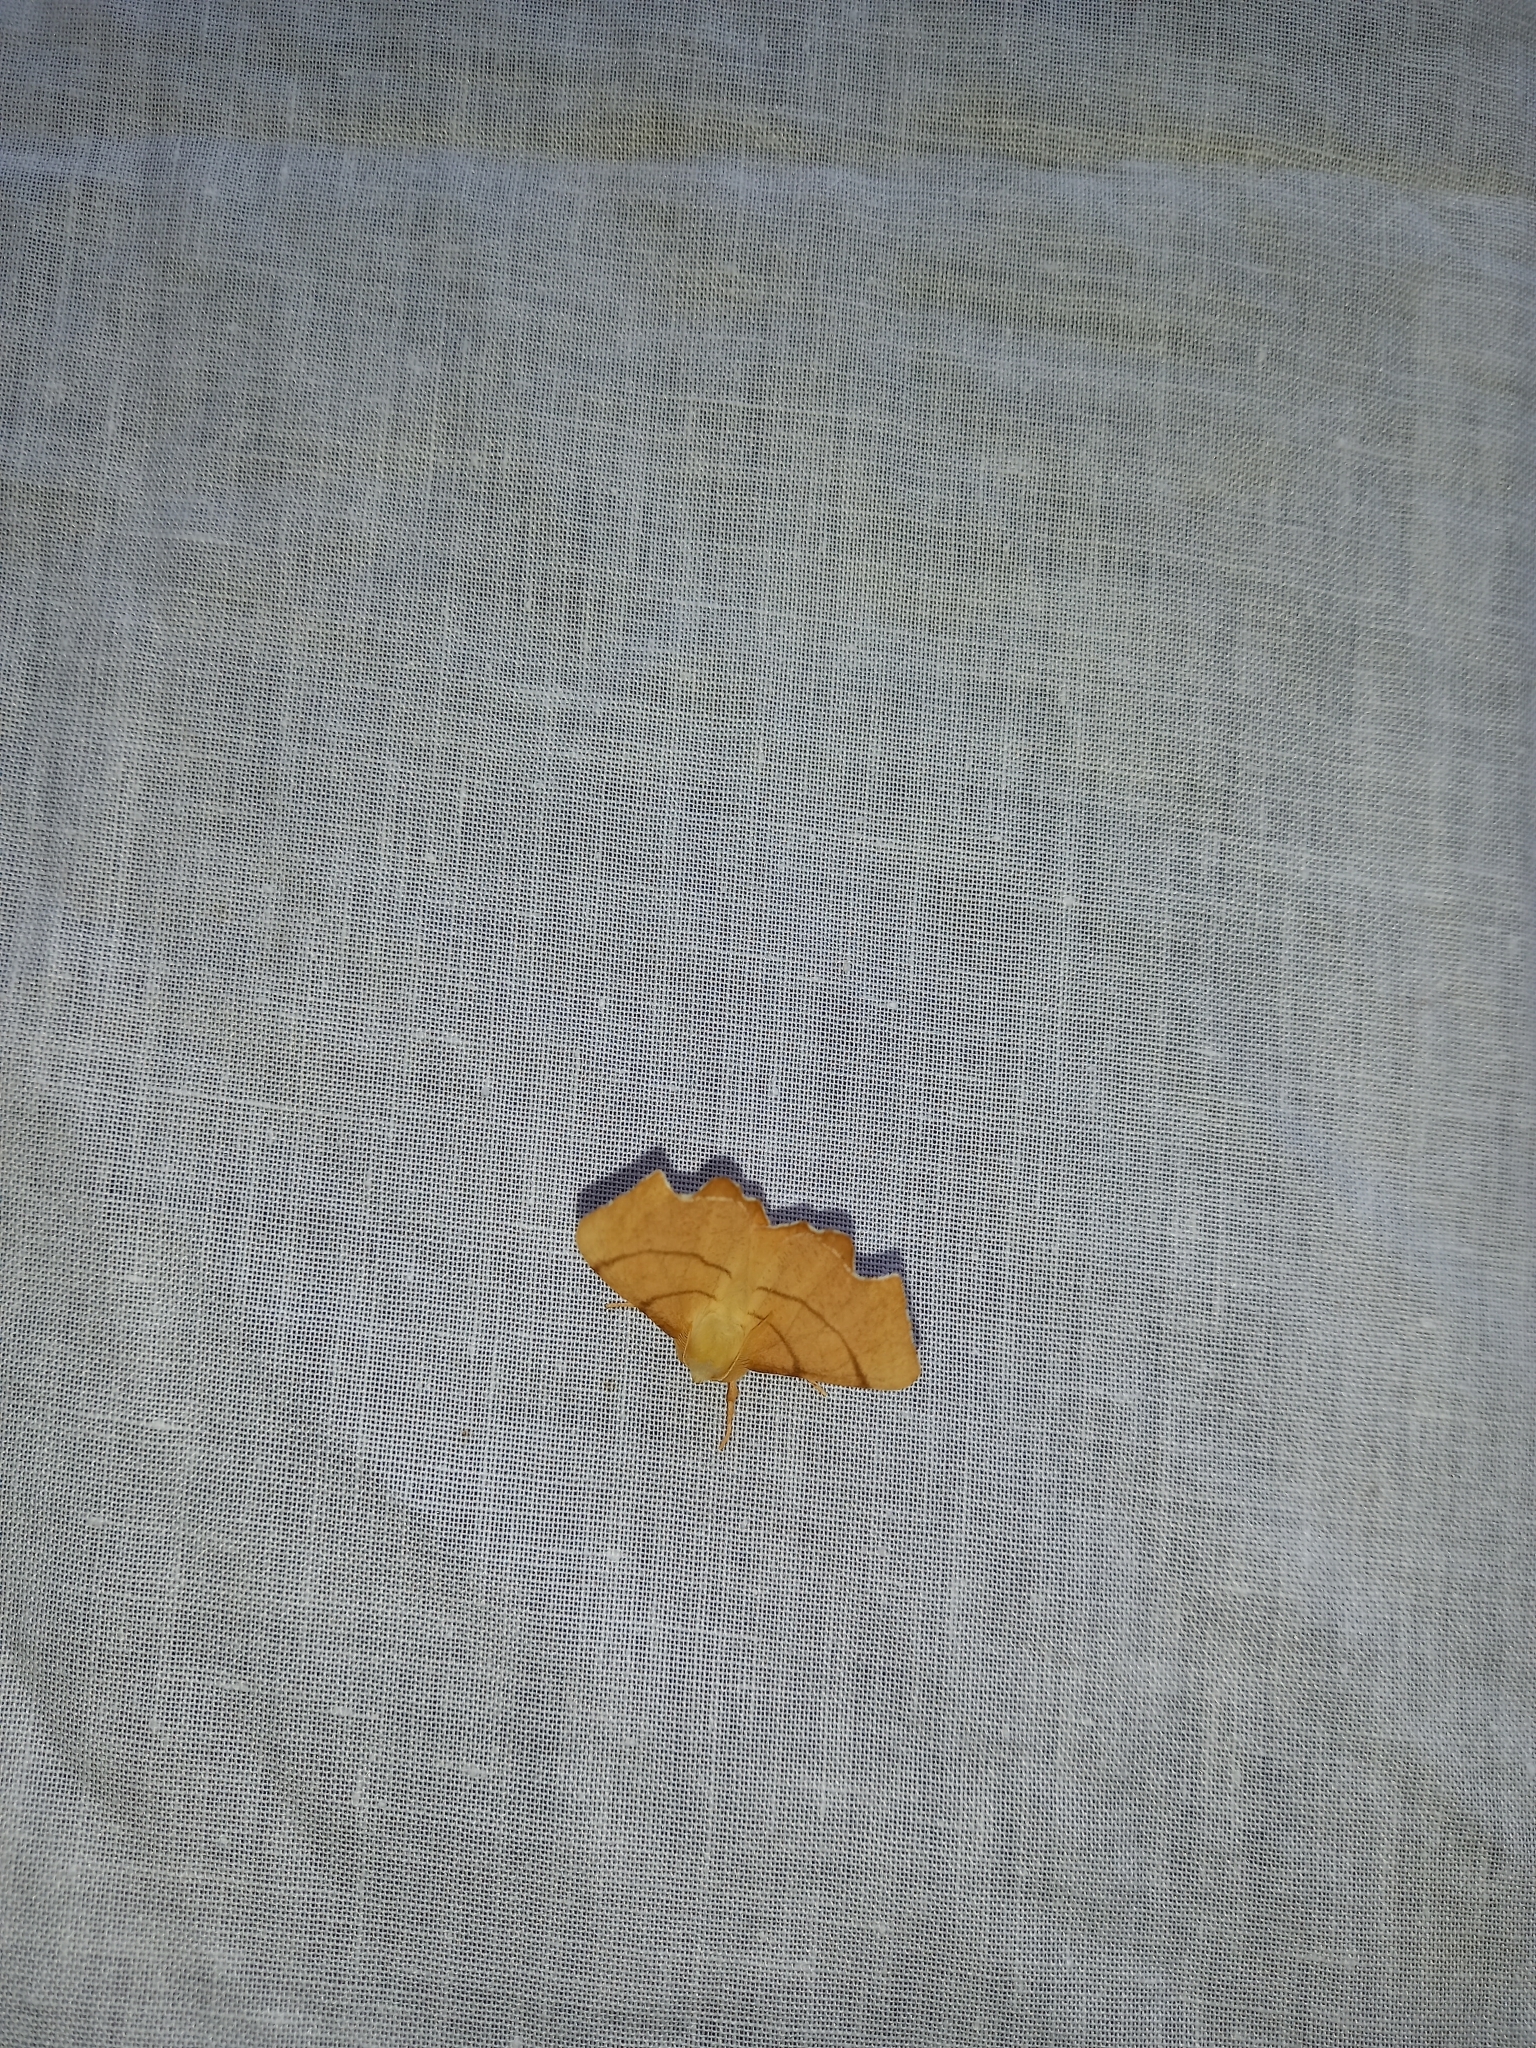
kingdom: Animalia
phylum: Arthropoda
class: Insecta
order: Lepidoptera
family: Geometridae
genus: Ennomos
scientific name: Ennomos erosaria
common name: September thorn
